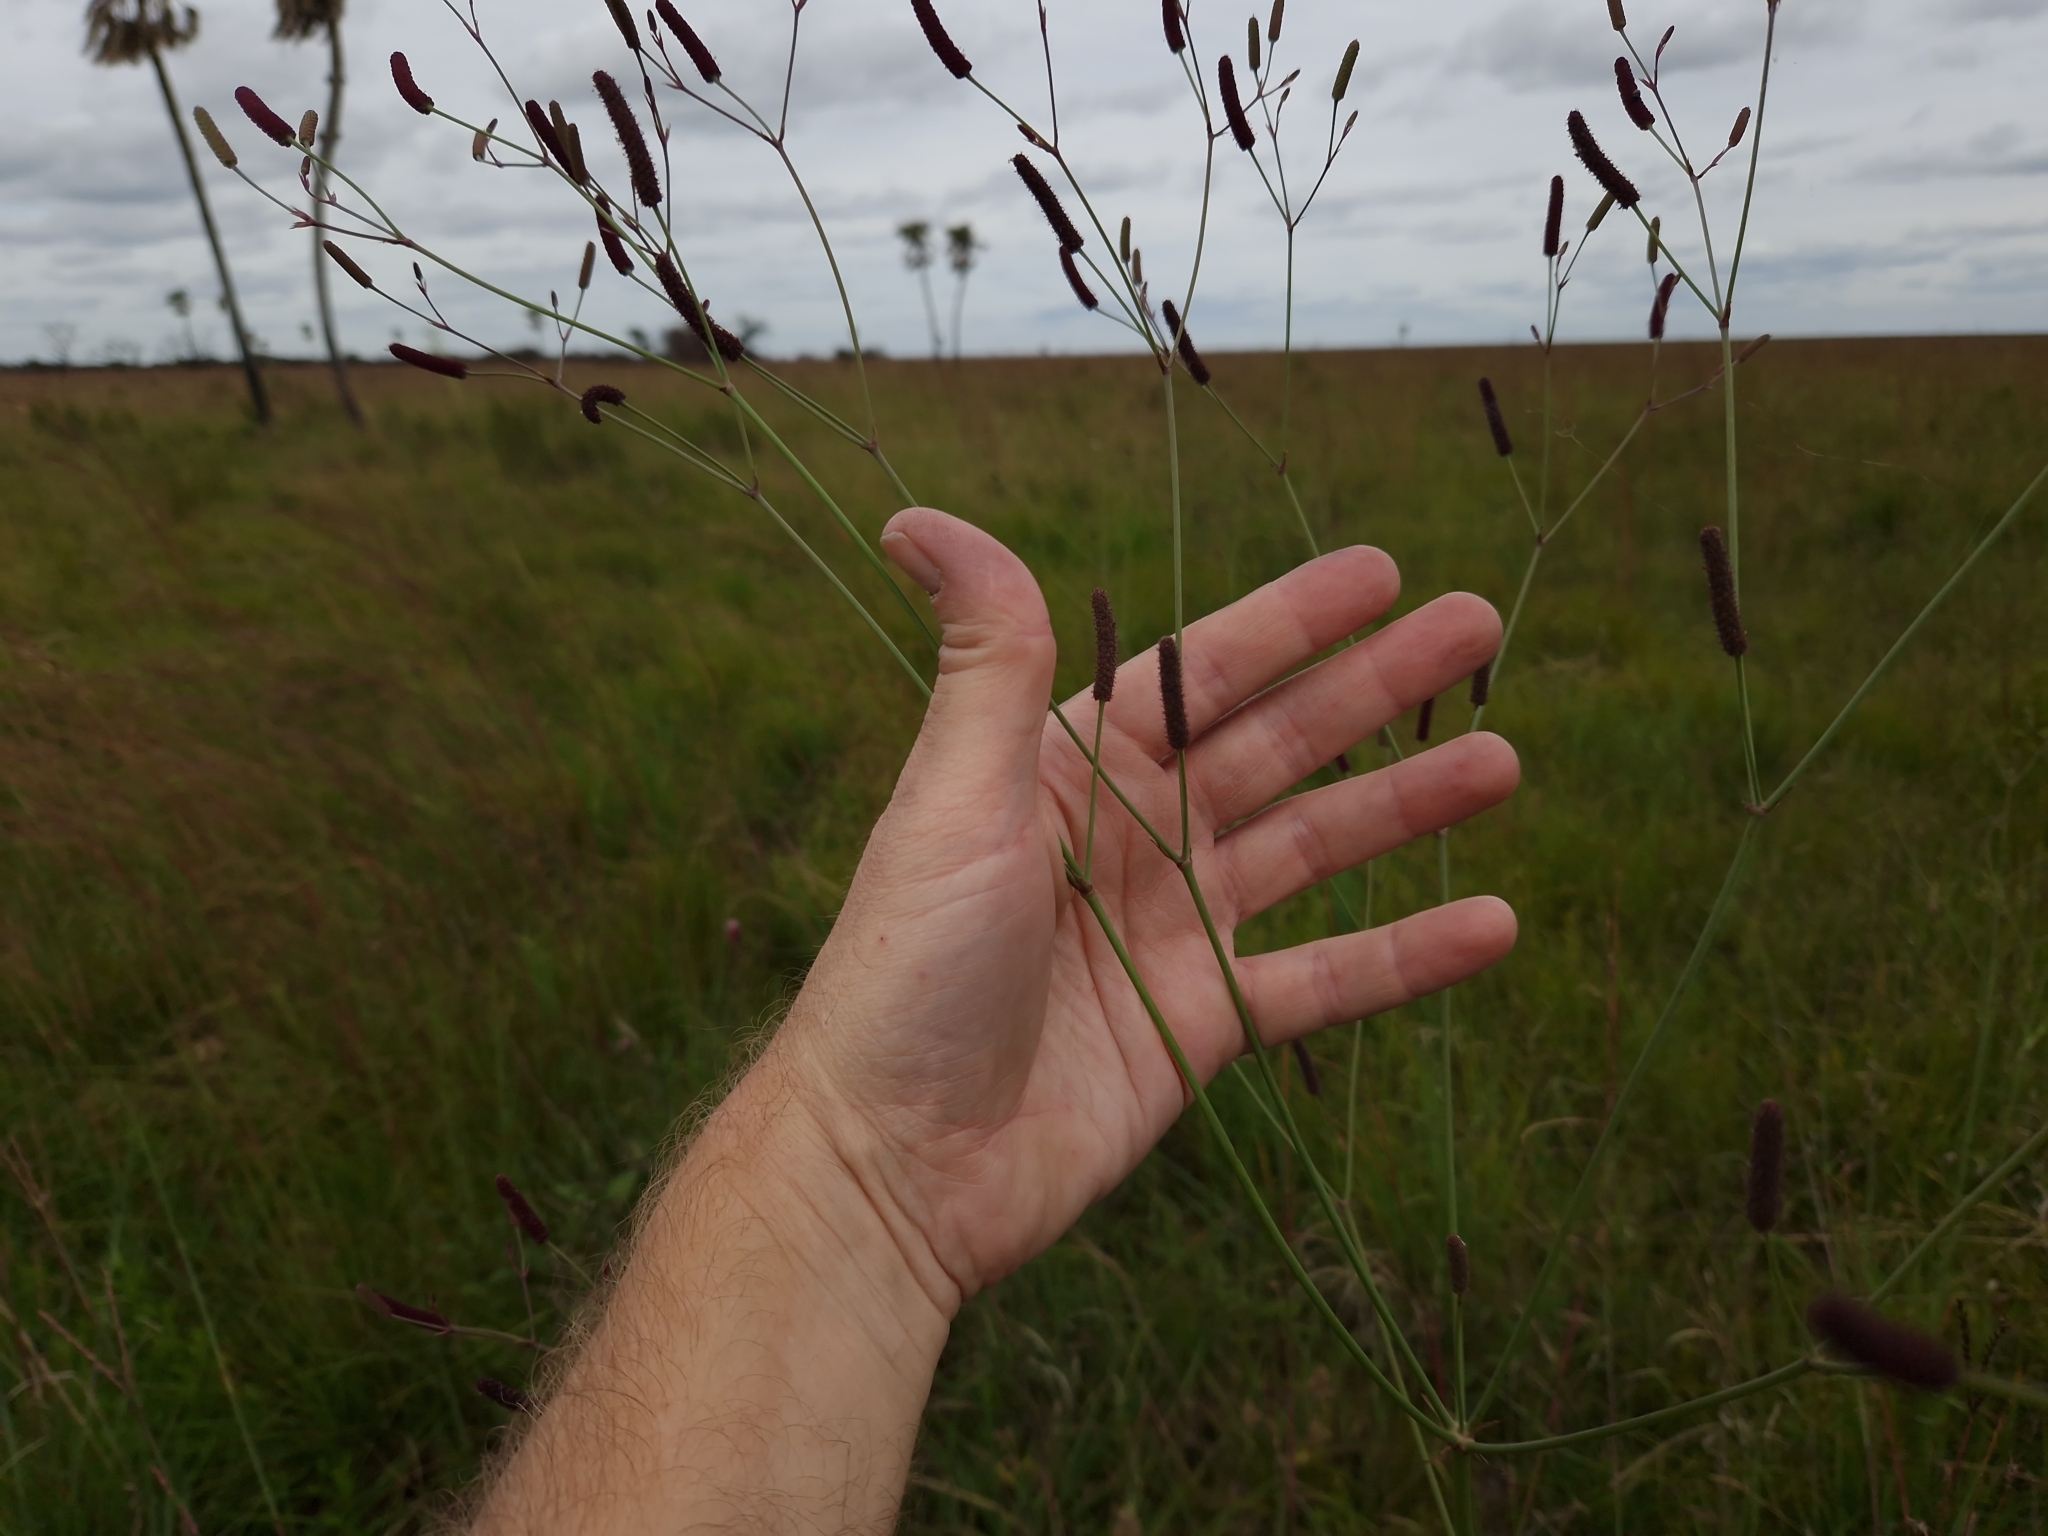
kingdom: Plantae
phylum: Tracheophyta
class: Magnoliopsida
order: Apiales
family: Apiaceae
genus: Eryngium
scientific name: Eryngium ebracteatum
